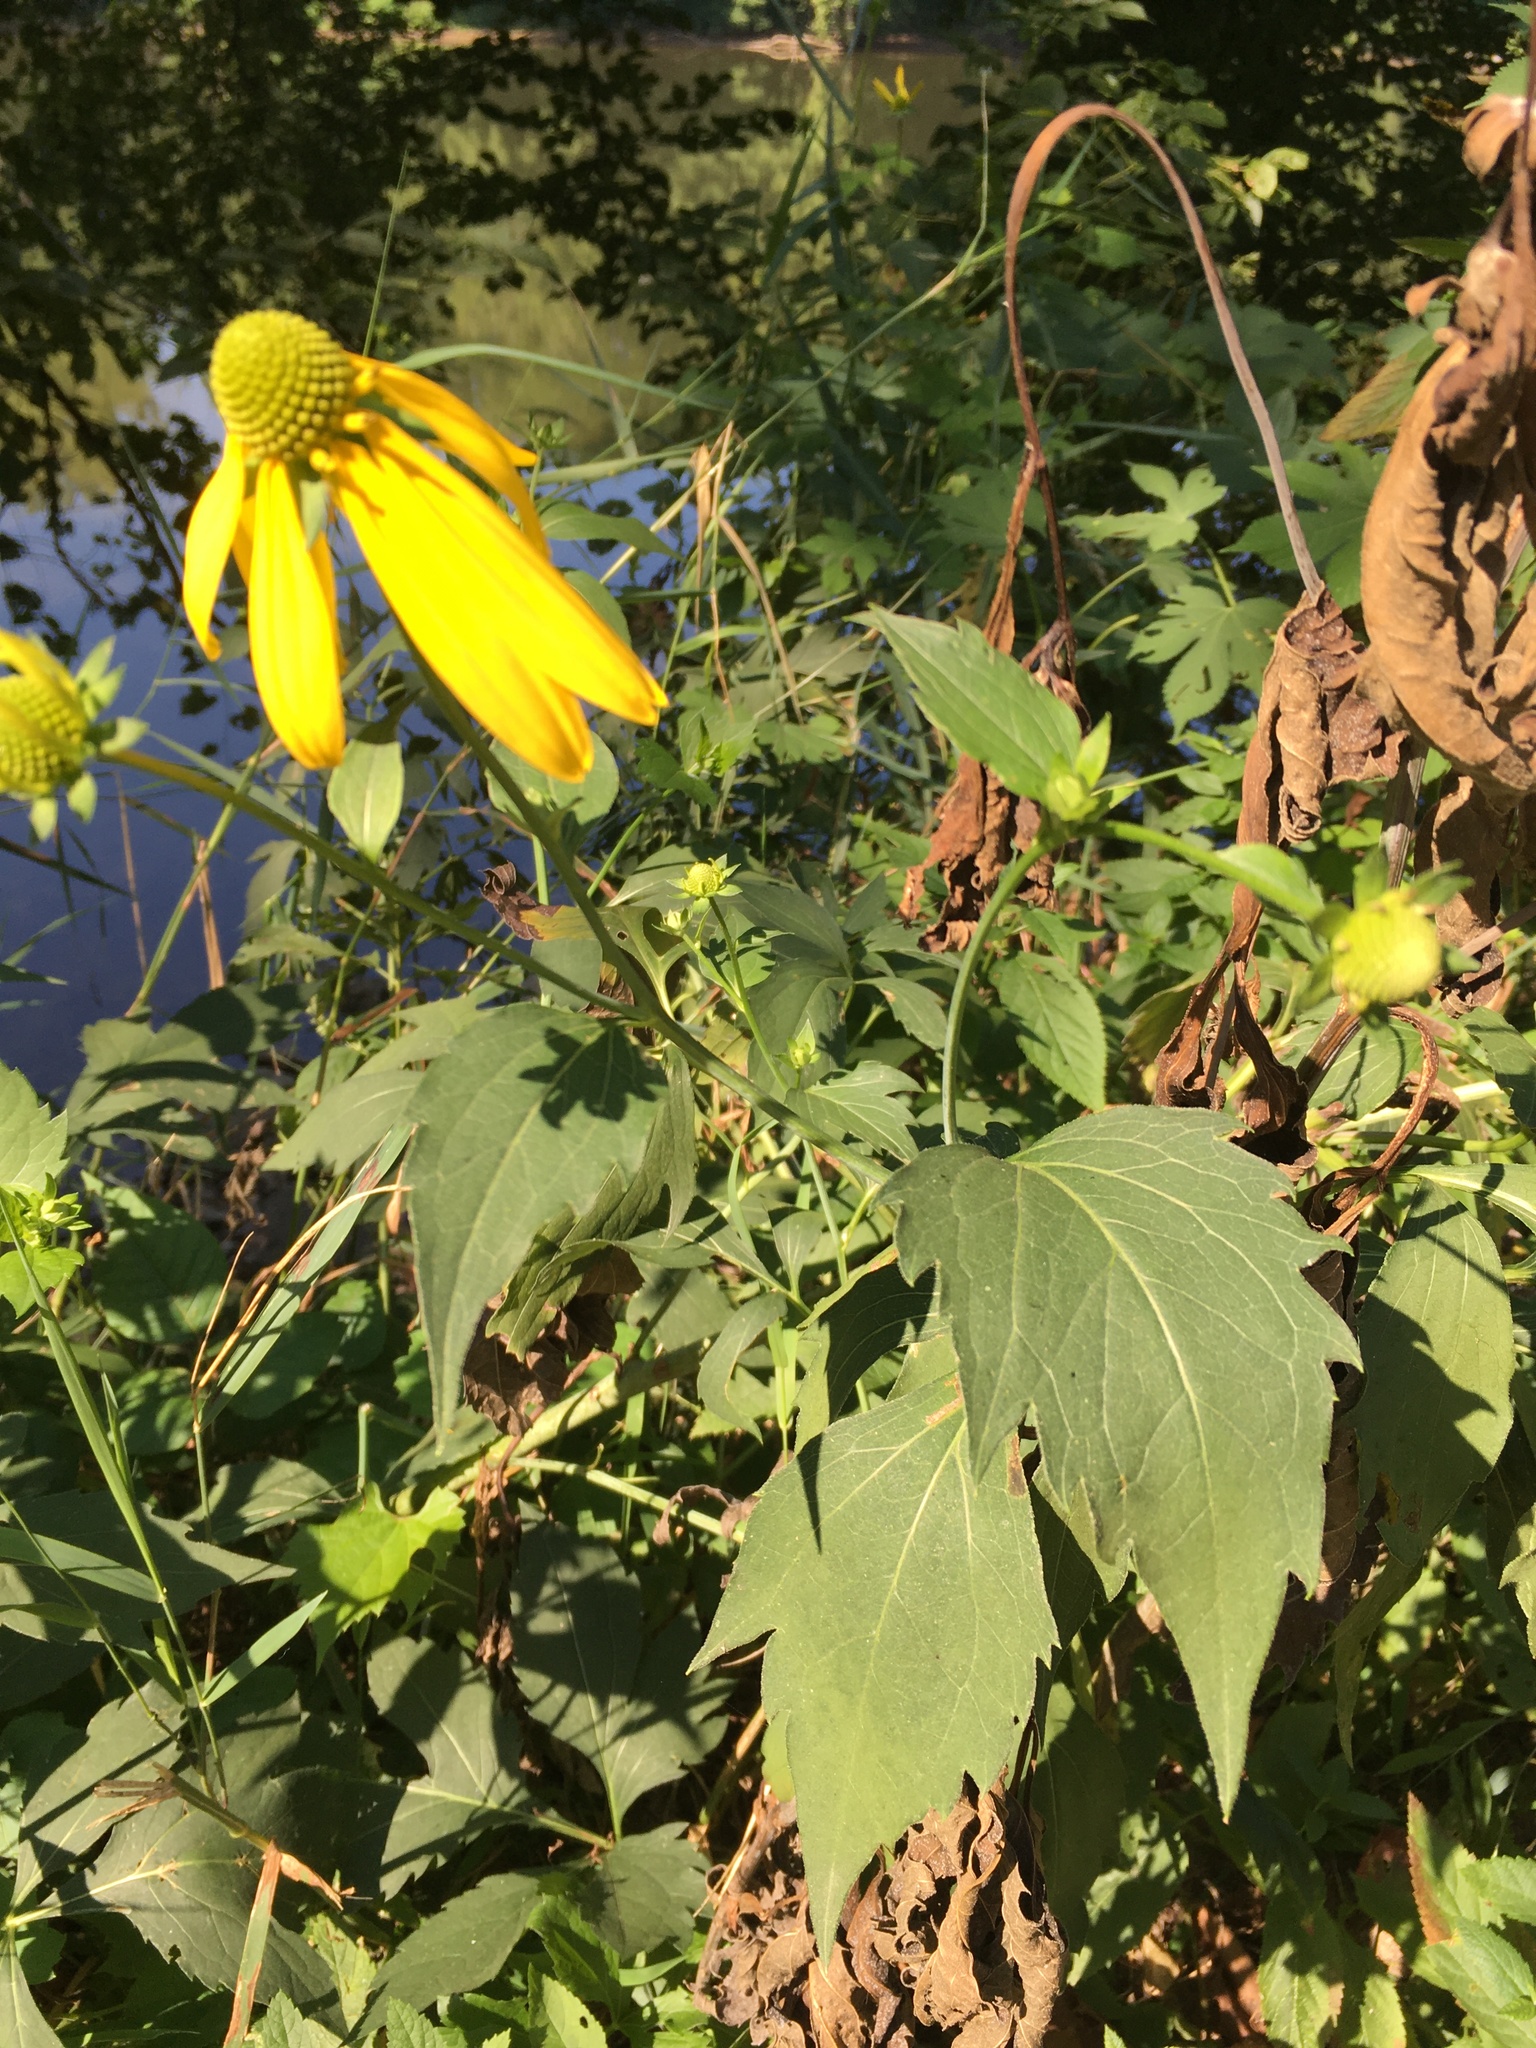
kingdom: Plantae
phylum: Tracheophyta
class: Magnoliopsida
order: Asterales
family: Asteraceae
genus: Rudbeckia
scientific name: Rudbeckia laciniata
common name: Coneflower
